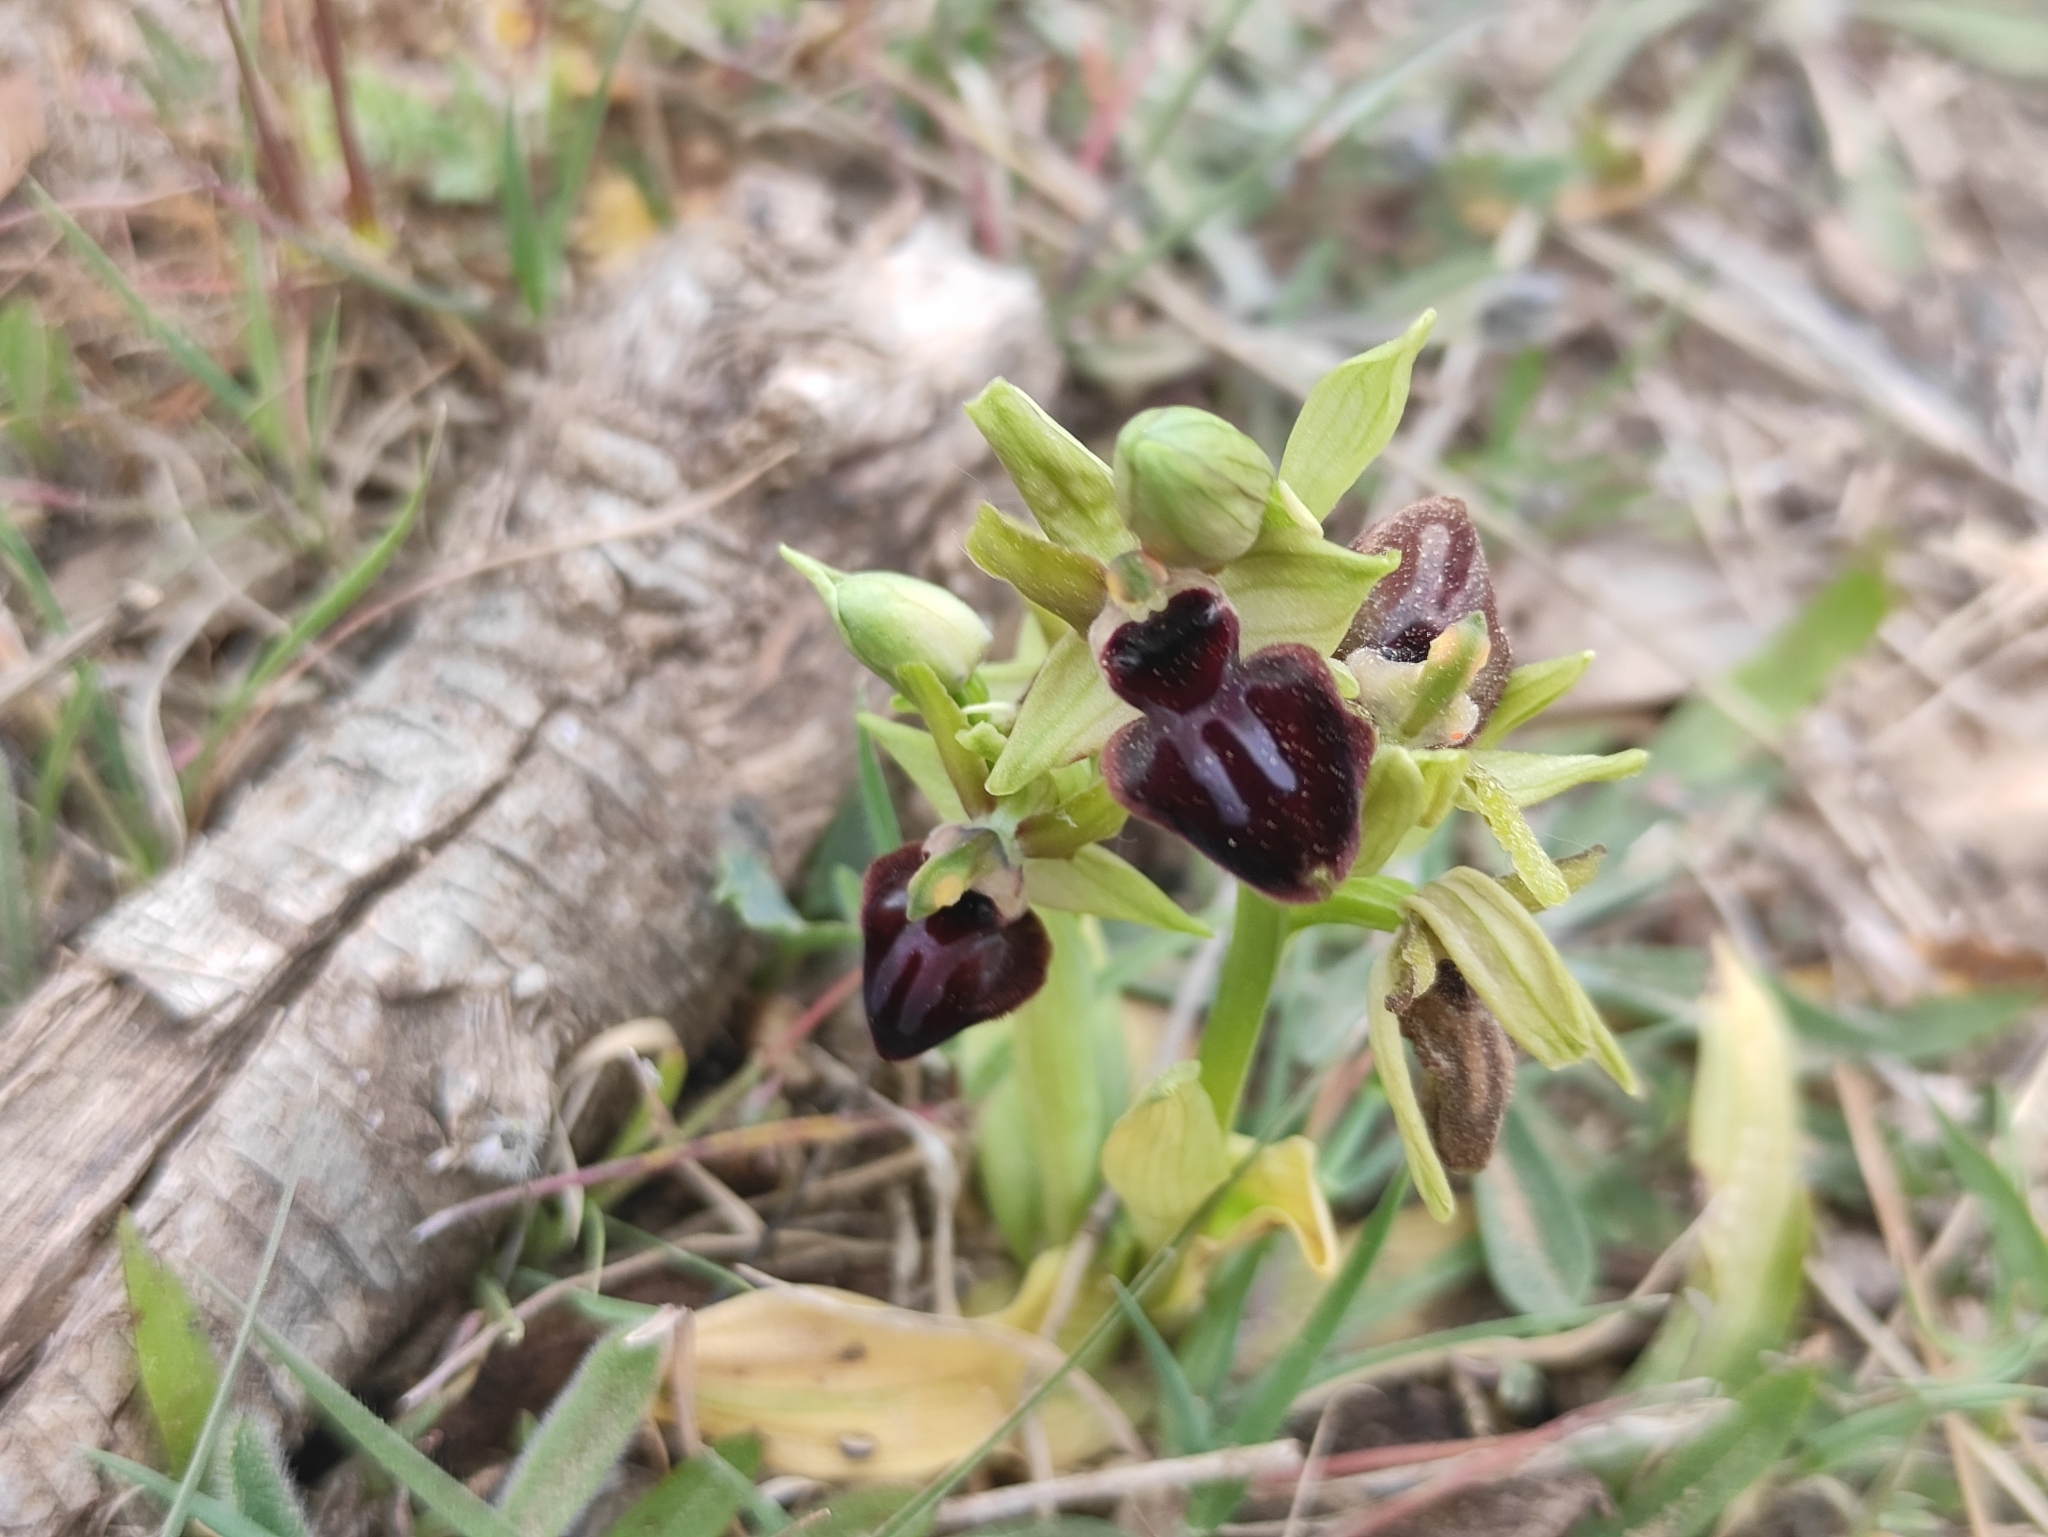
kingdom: Plantae
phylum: Tracheophyta
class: Liliopsida
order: Asparagales
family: Orchidaceae
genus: Ophrys
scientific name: Ophrys sphegodes
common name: Early spider-orchid
